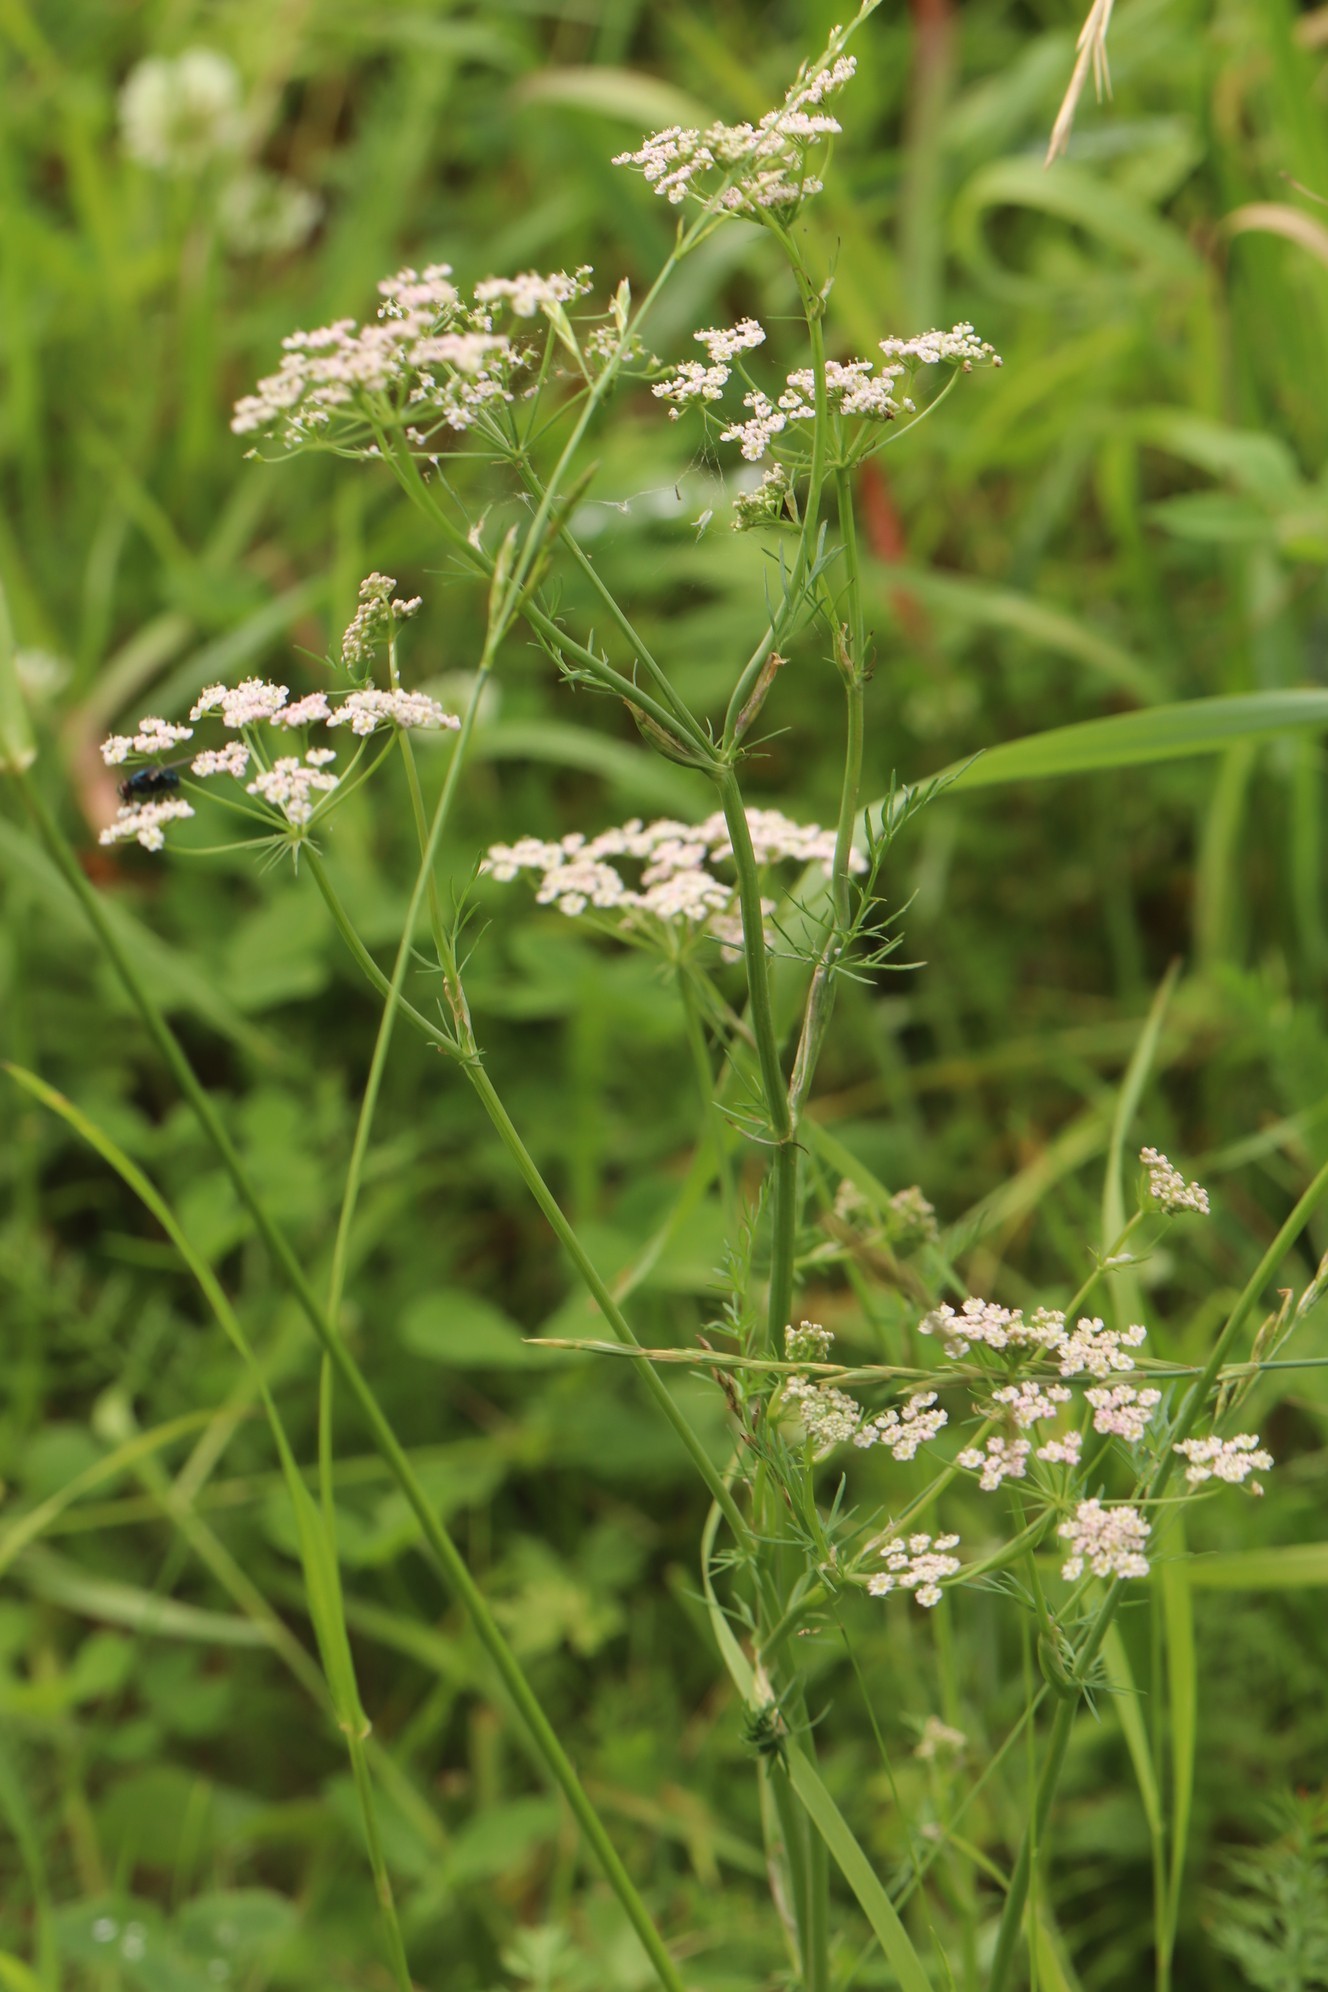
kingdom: Plantae
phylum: Tracheophyta
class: Magnoliopsida
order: Apiales
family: Apiaceae
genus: Carum
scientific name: Carum carvi
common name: Caraway
